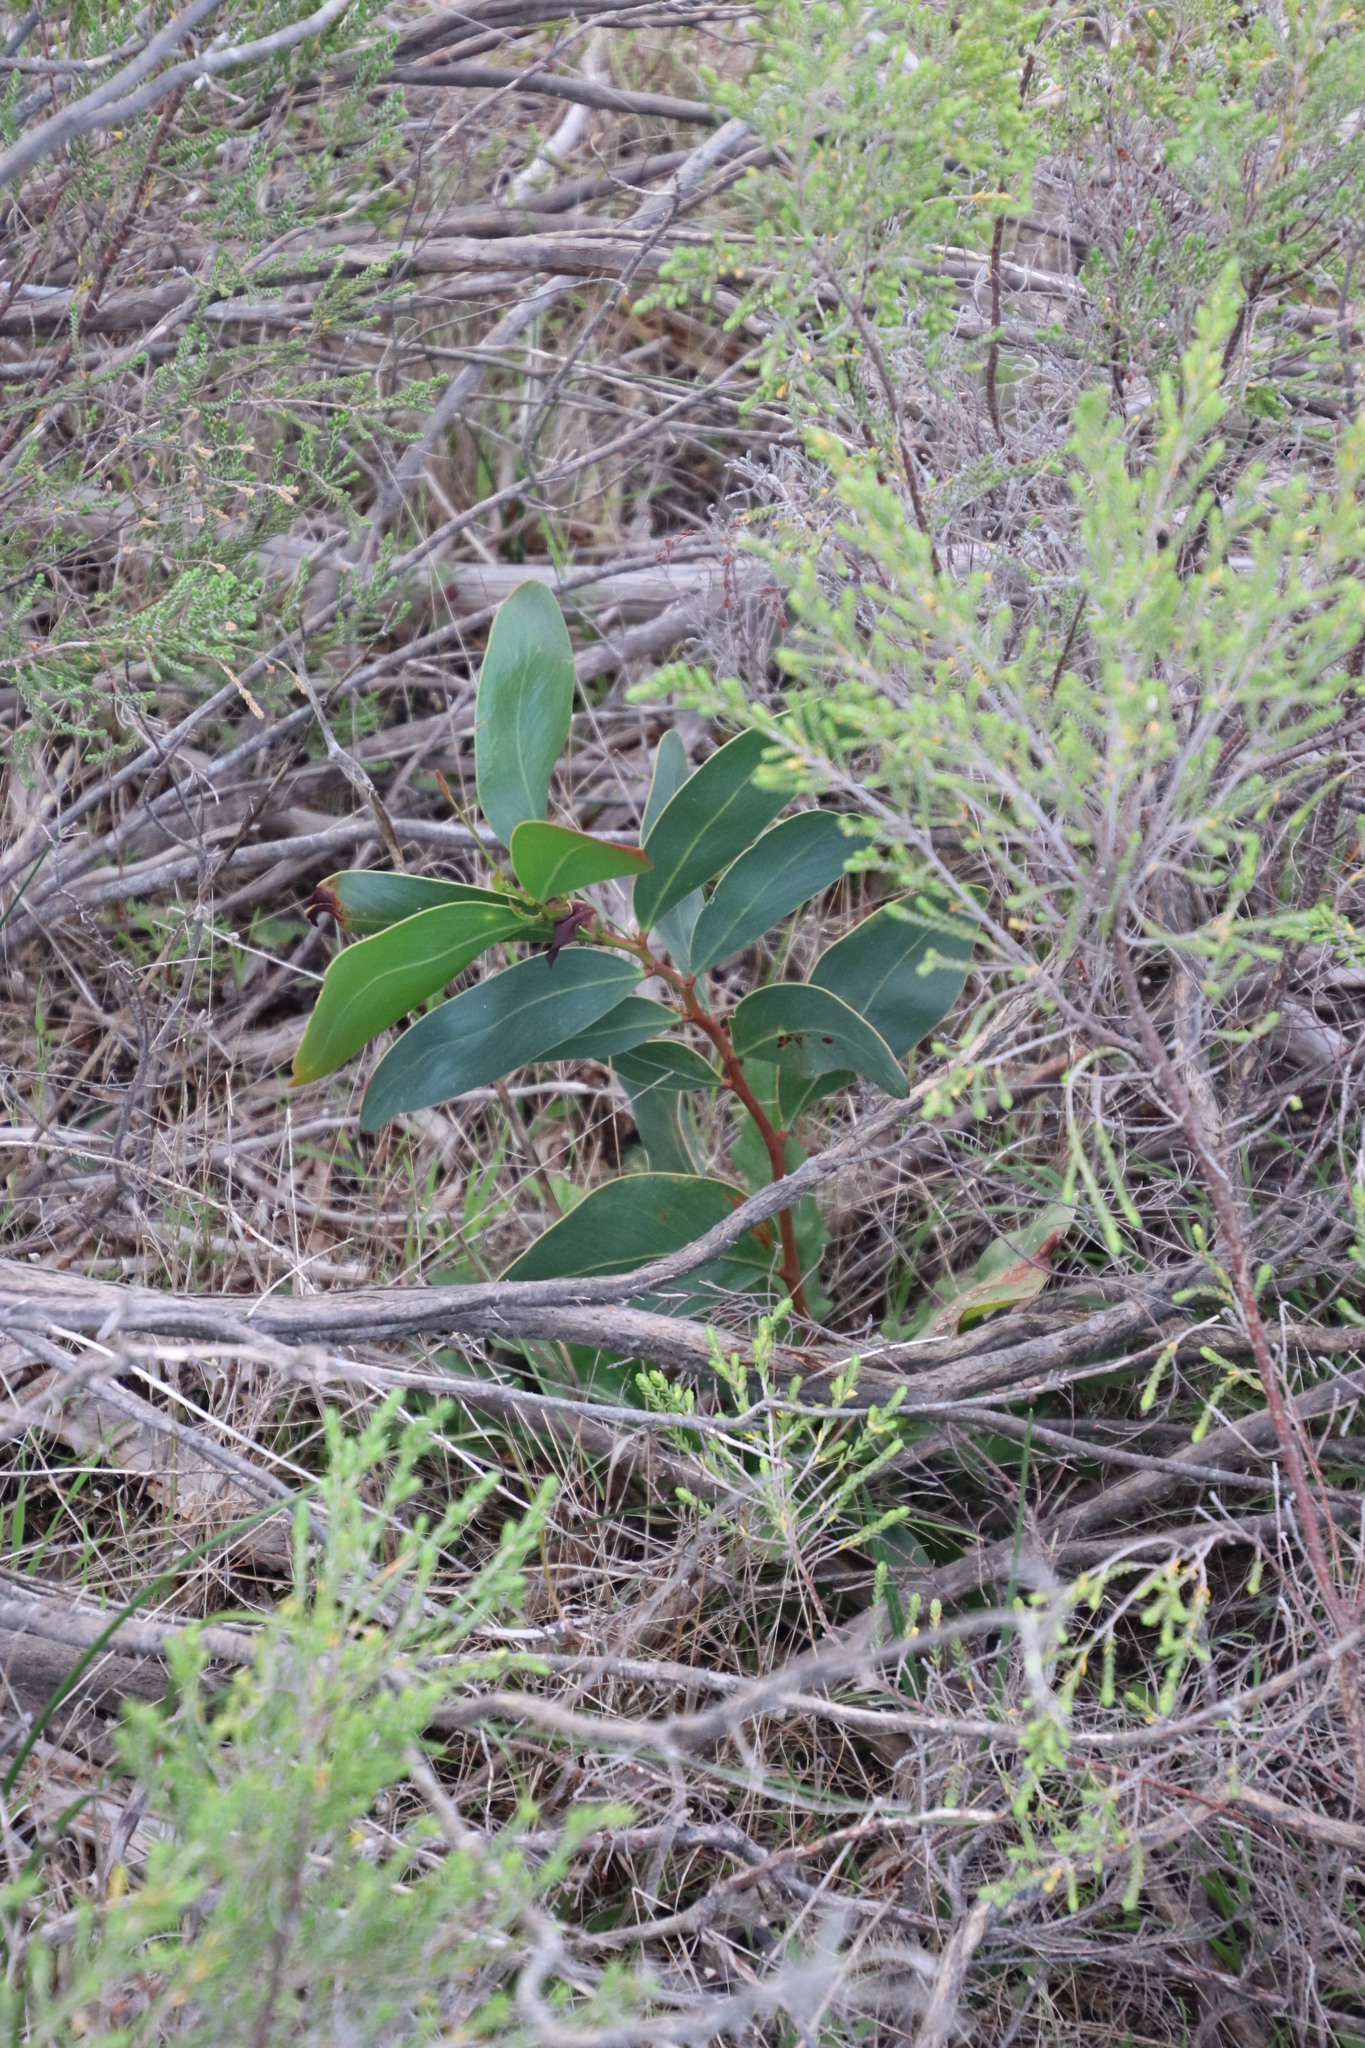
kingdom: Plantae
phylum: Tracheophyta
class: Magnoliopsida
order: Fabales
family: Fabaceae
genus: Acacia
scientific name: Acacia pycnantha
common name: Golden wattle
